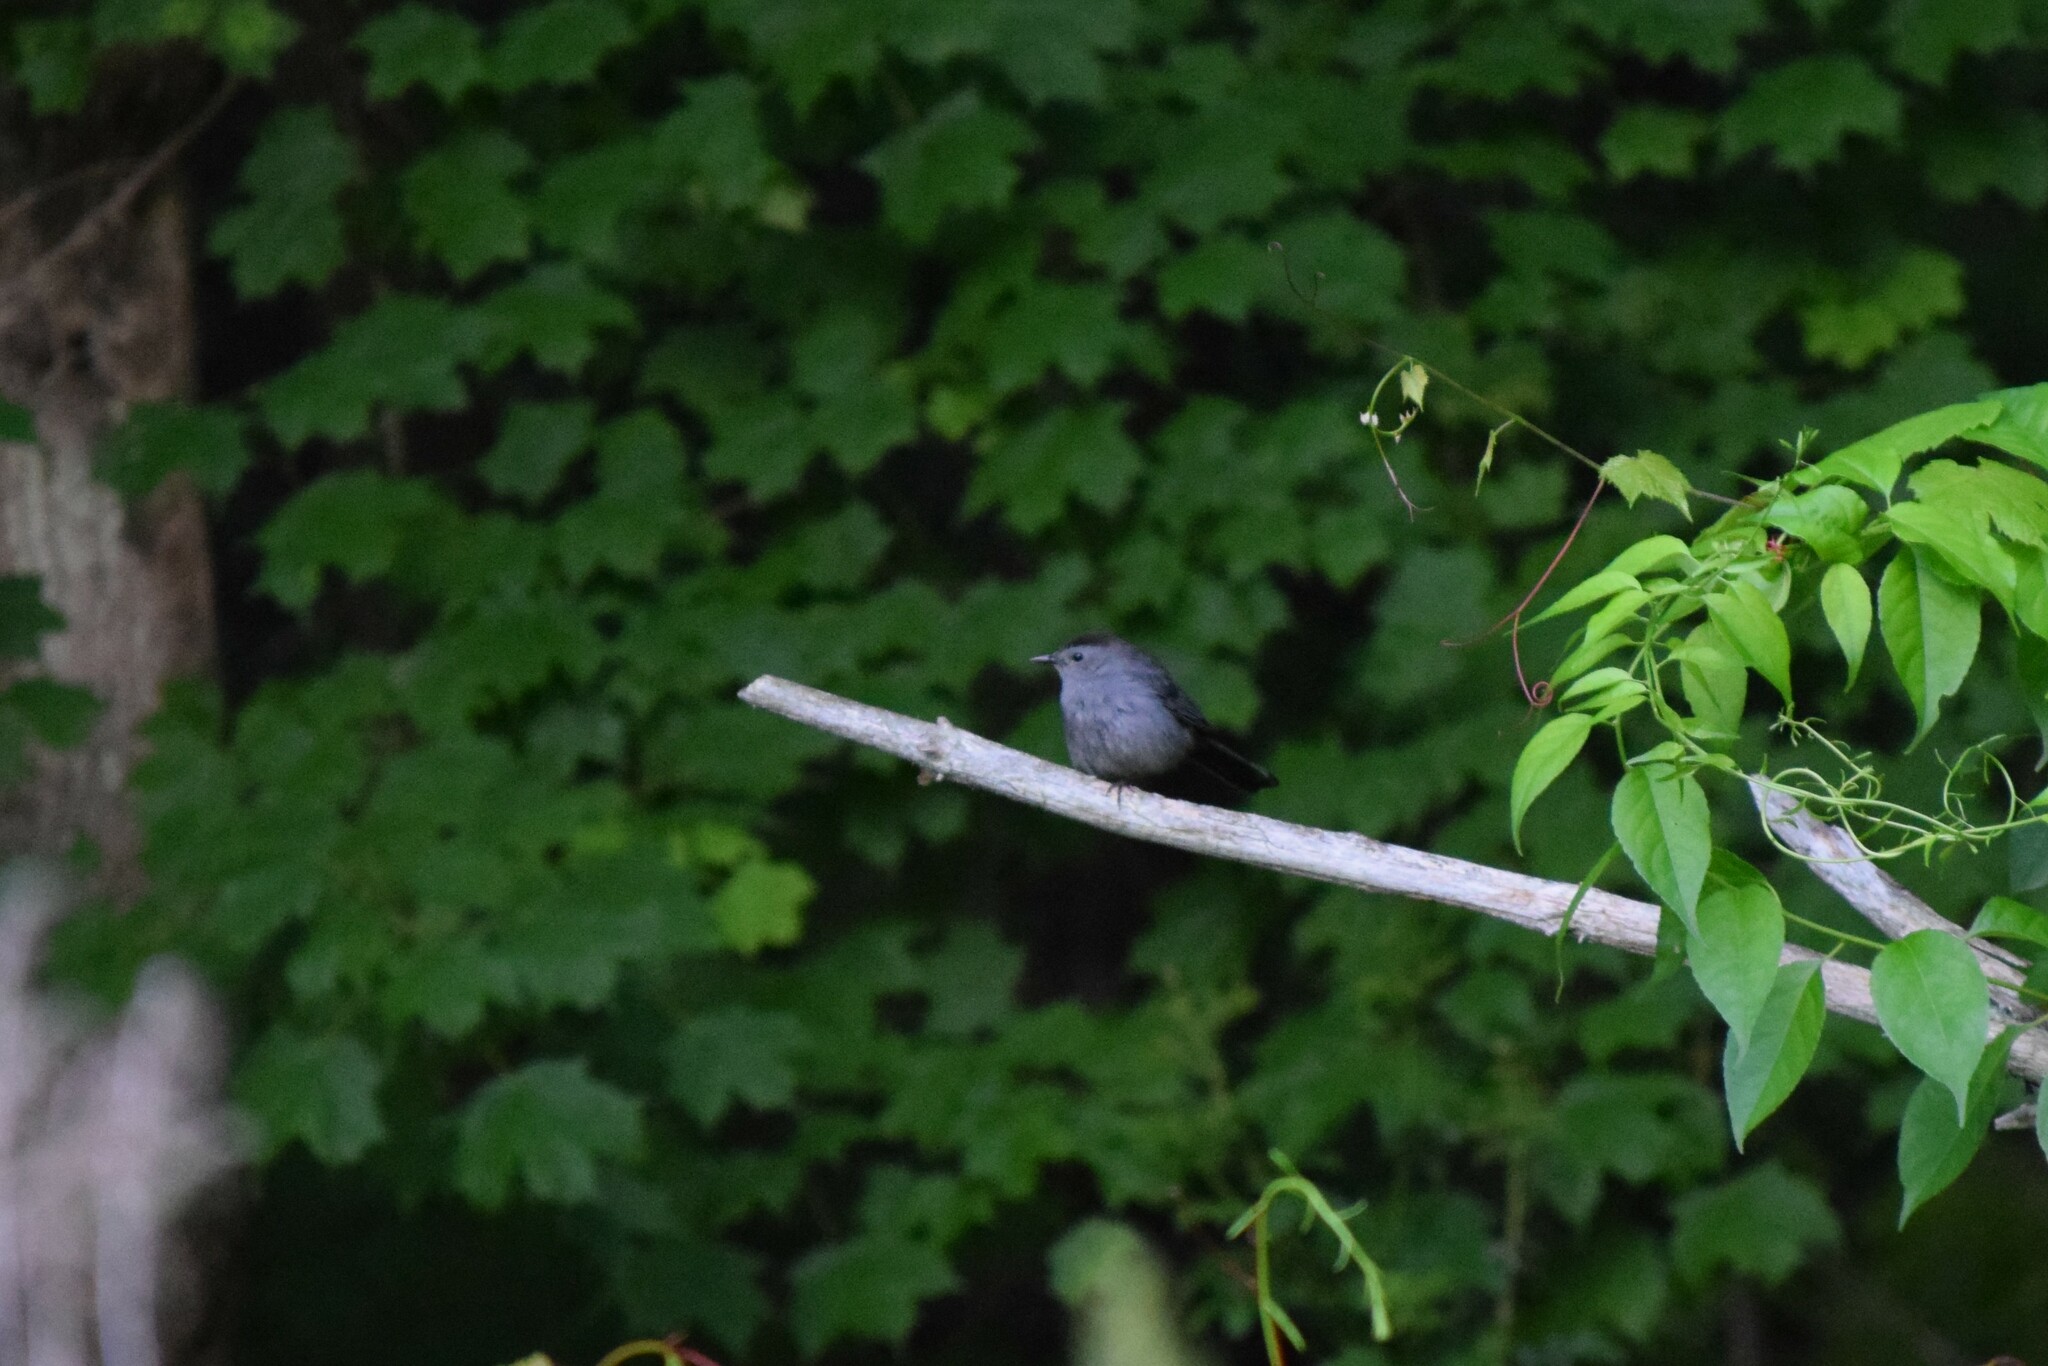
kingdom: Animalia
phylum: Chordata
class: Aves
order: Passeriformes
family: Mimidae
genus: Dumetella
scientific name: Dumetella carolinensis
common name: Gray catbird
